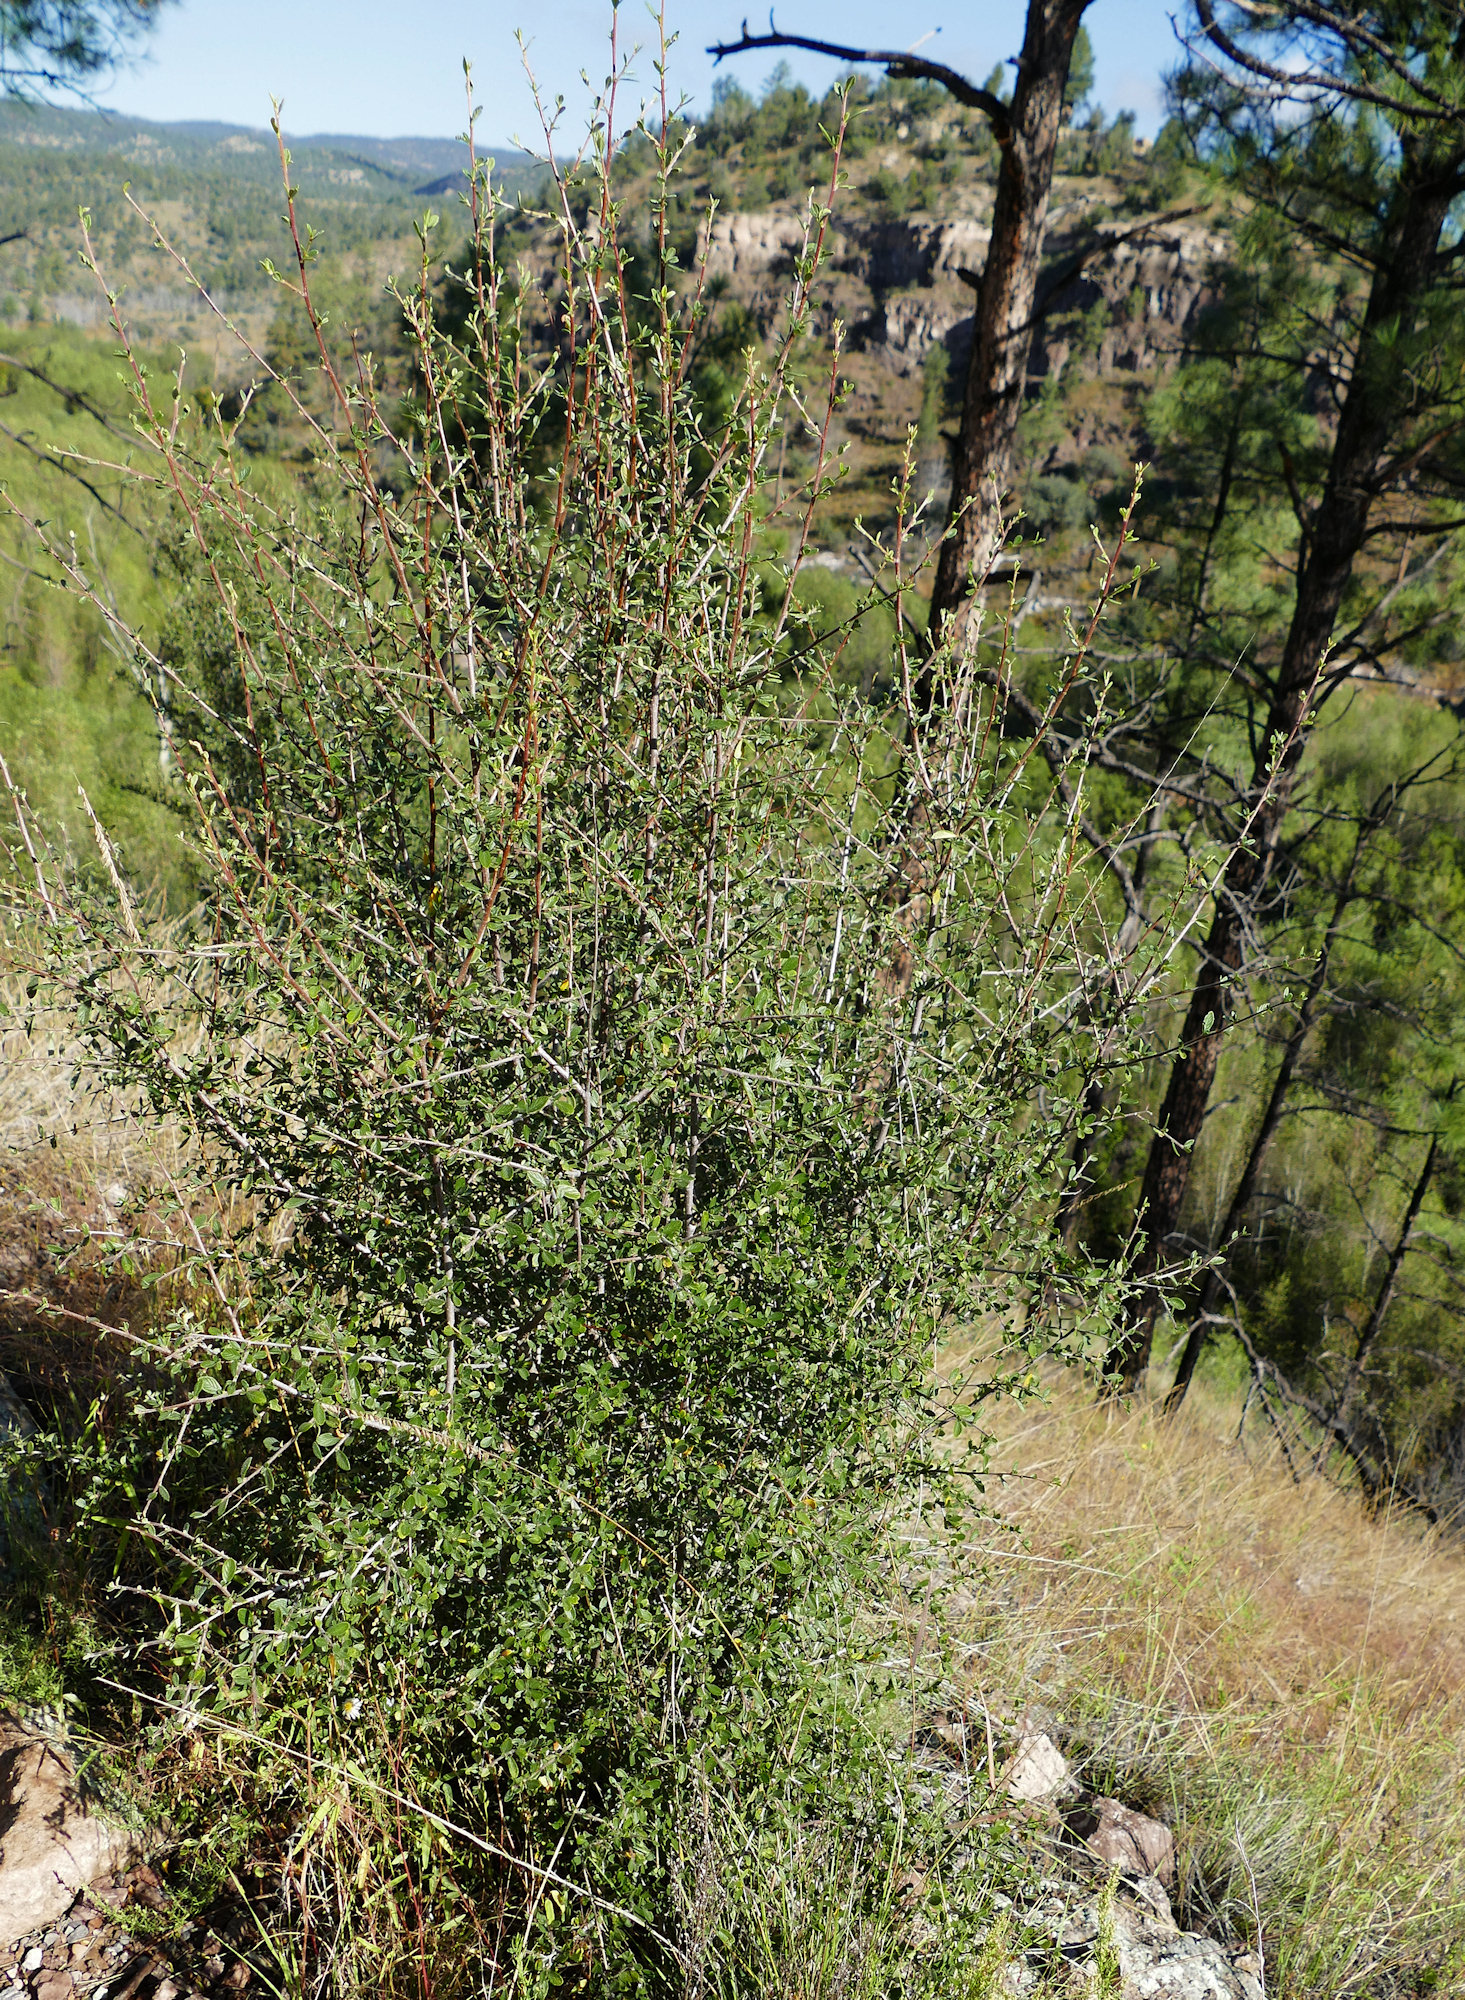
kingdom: Plantae
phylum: Tracheophyta
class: Magnoliopsida
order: Rosales
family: Rosaceae
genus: Cercocarpus
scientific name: Cercocarpus breviflorus
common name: Wright's mountain-mahogany
